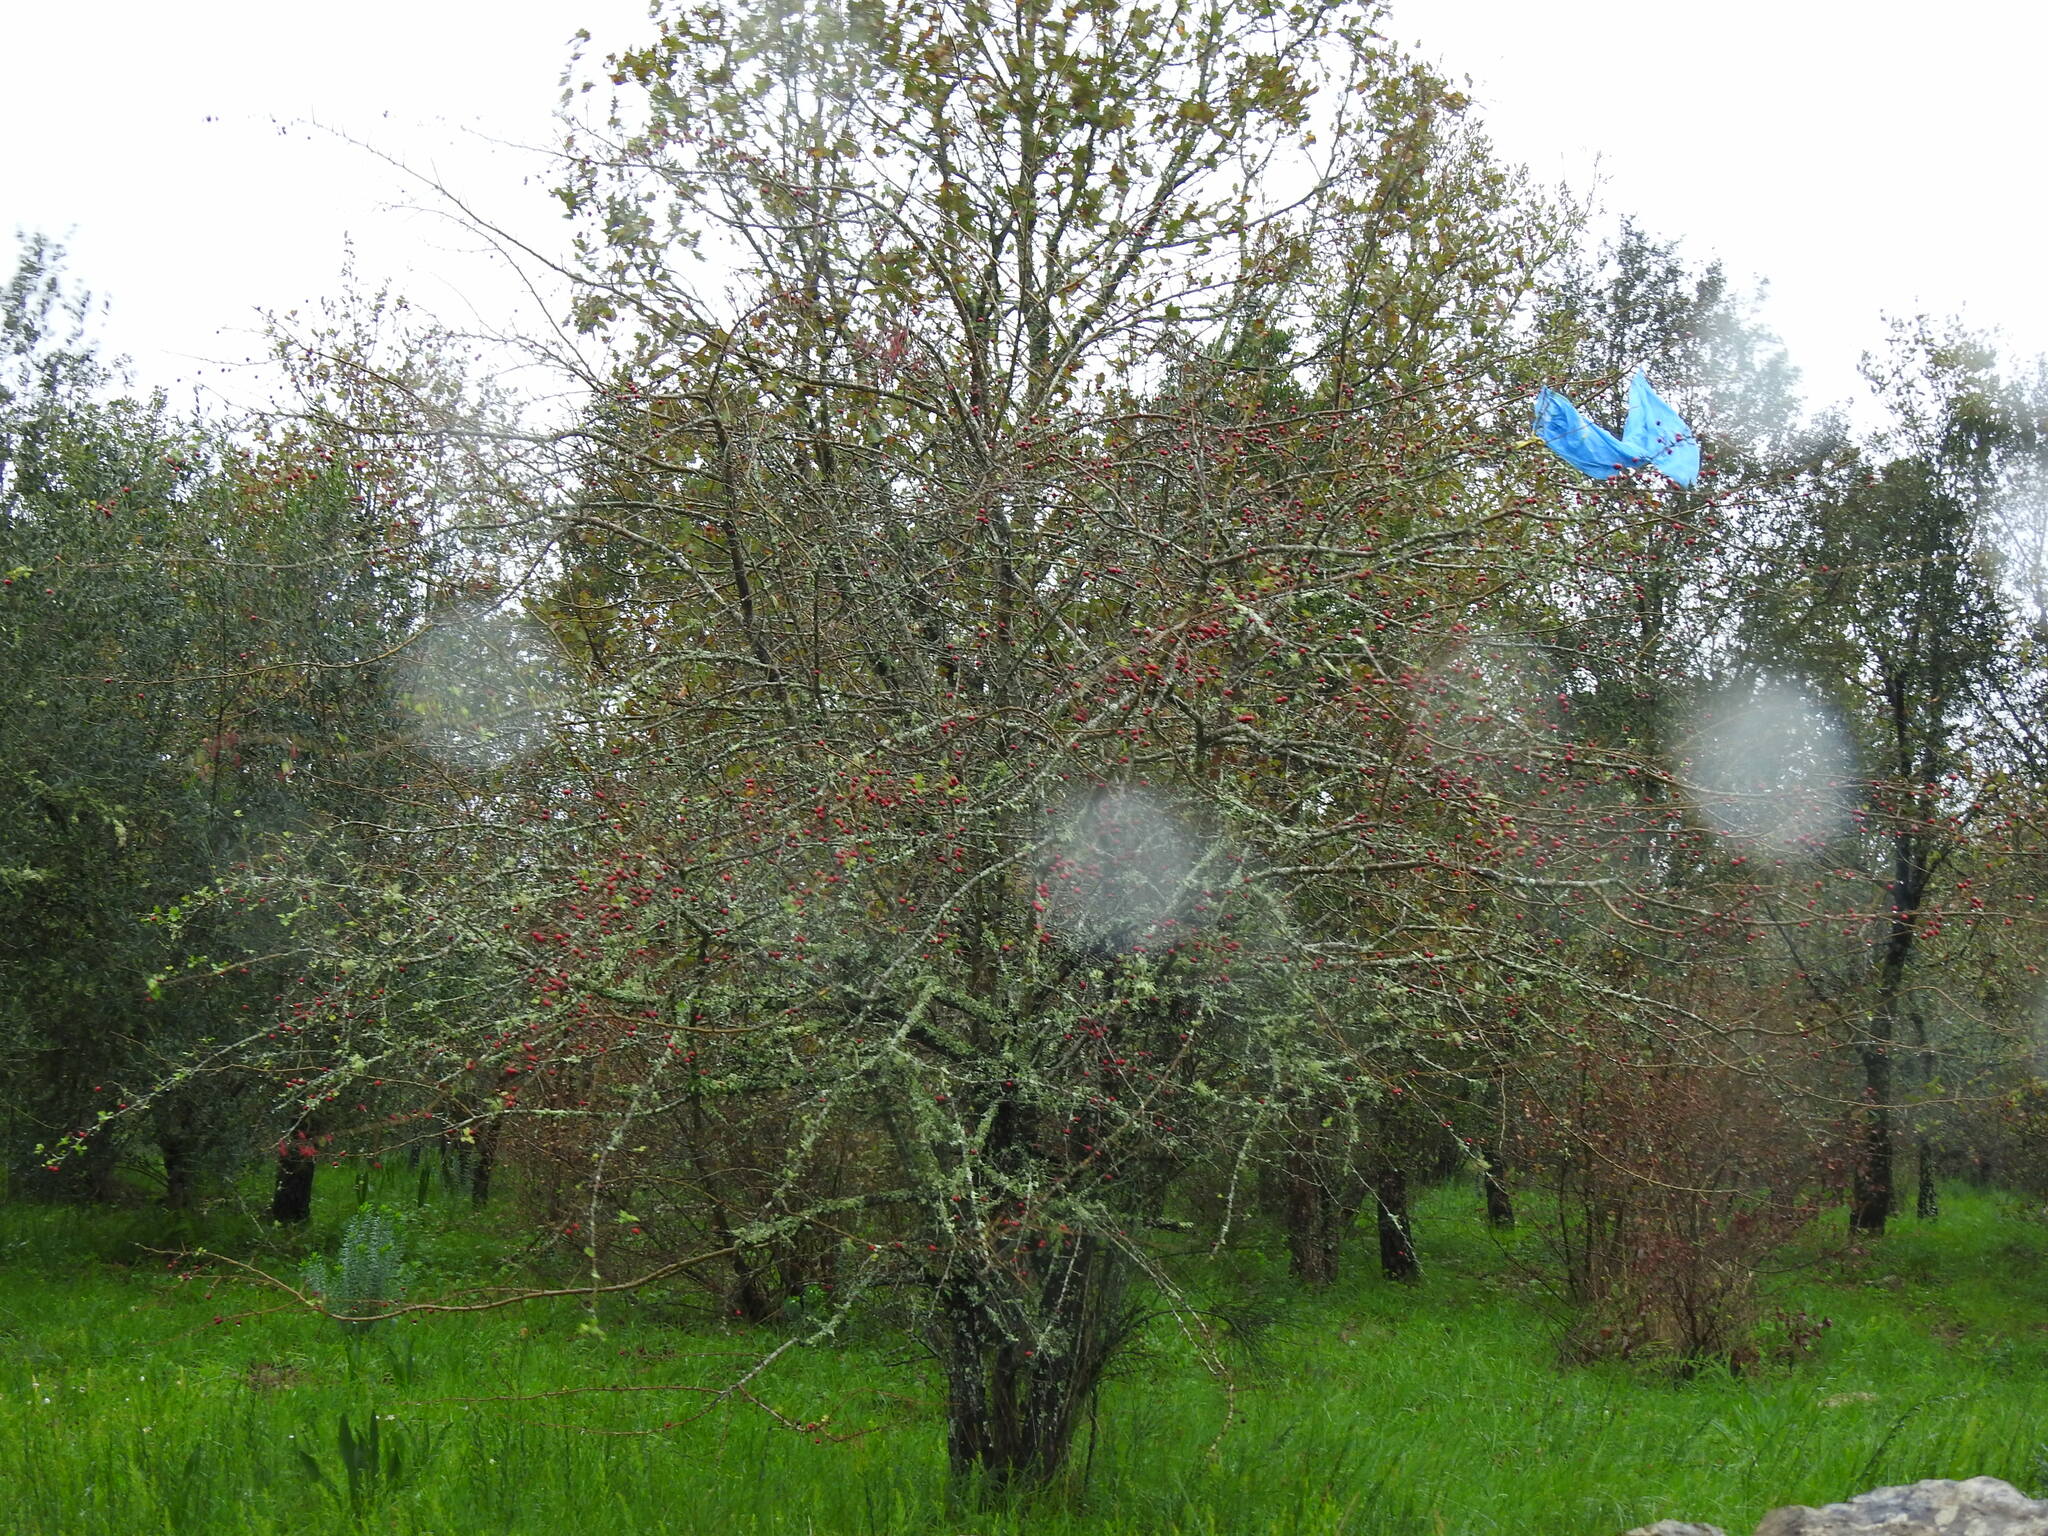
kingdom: Plantae
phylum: Tracheophyta
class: Magnoliopsida
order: Rosales
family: Rosaceae
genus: Crataegus
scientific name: Crataegus monogyna
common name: Hawthorn
